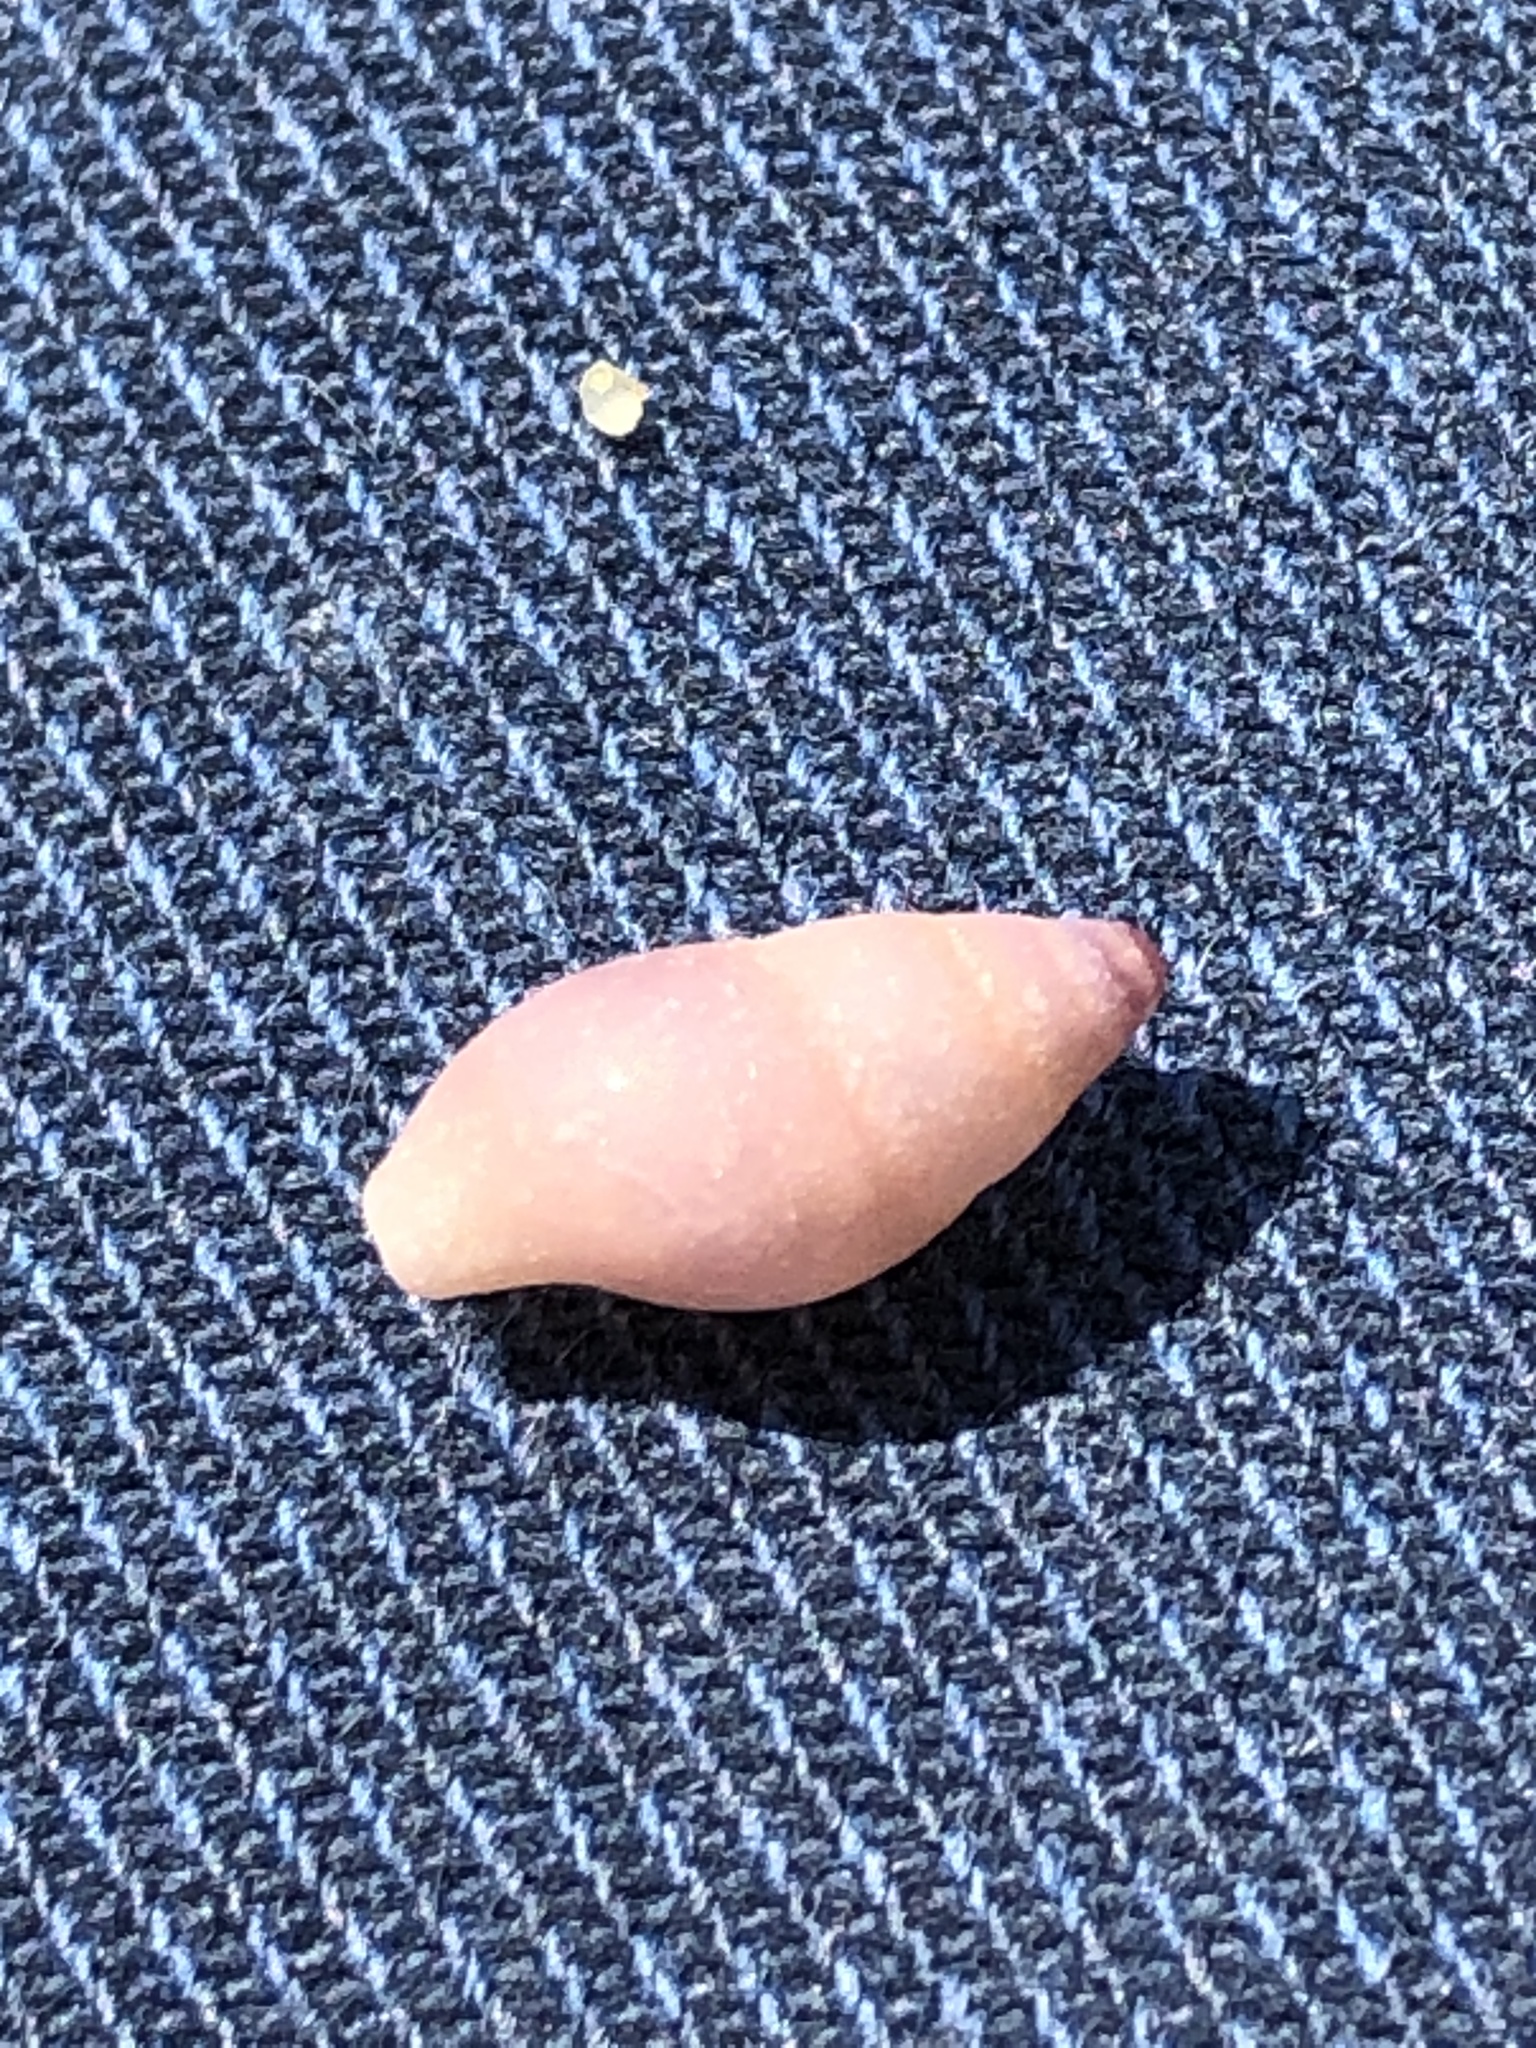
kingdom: Animalia
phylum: Mollusca
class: Gastropoda
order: Neogastropoda
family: Columbellidae
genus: Mitrella
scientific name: Mitrella bicincta
